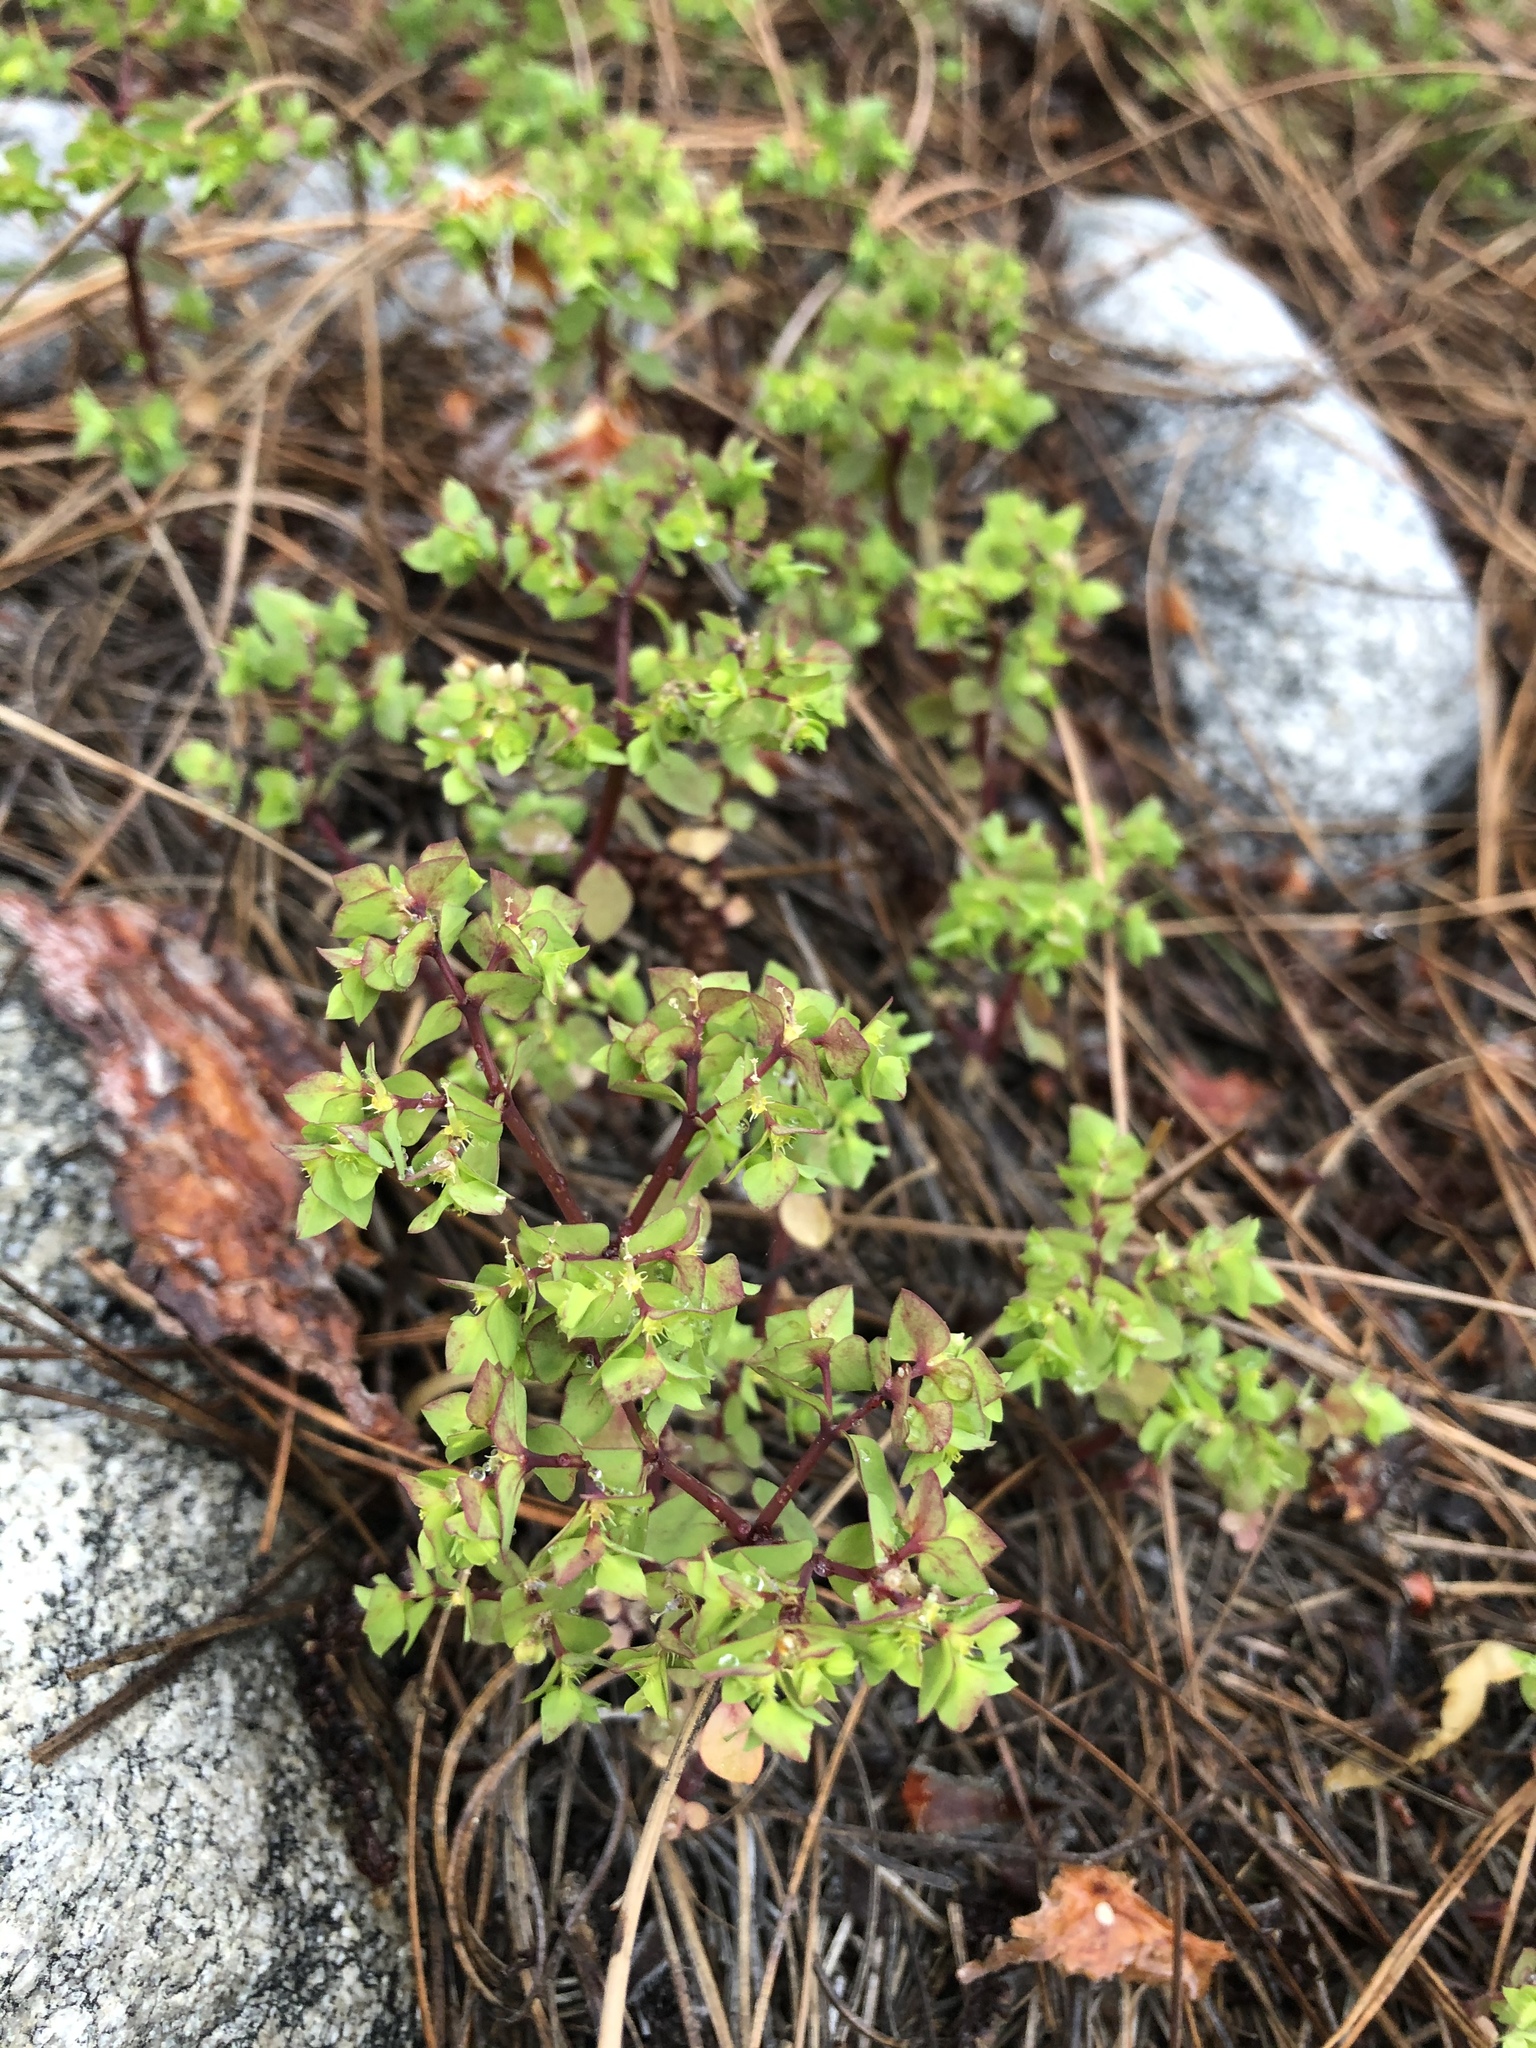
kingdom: Plantae
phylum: Tracheophyta
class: Magnoliopsida
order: Malpighiales
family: Euphorbiaceae
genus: Euphorbia
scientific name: Euphorbia peplus
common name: Petty spurge
